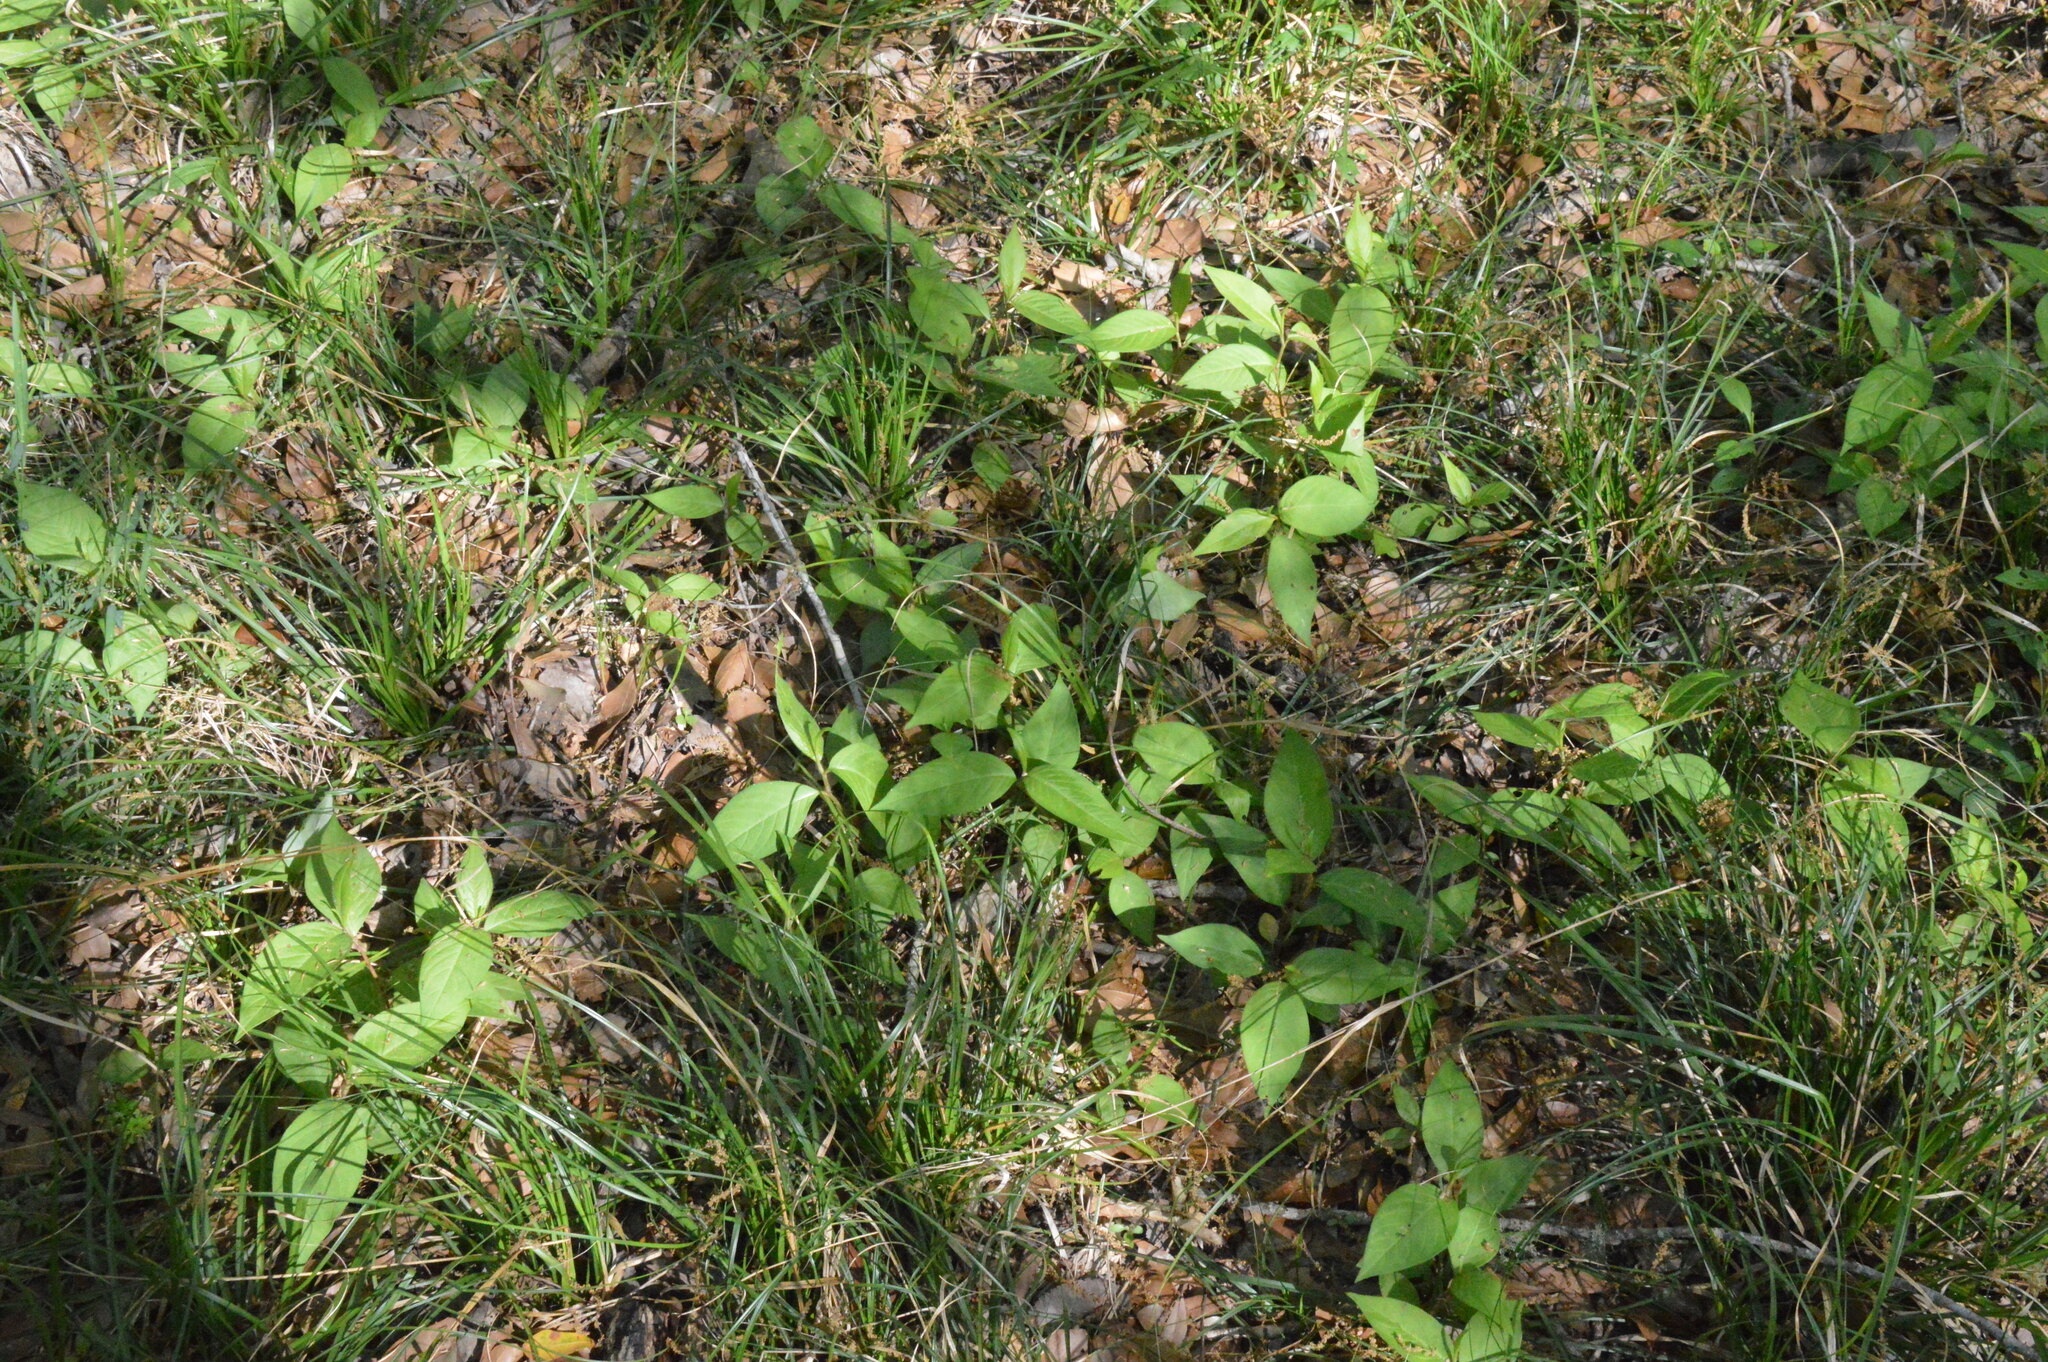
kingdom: Plantae
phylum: Tracheophyta
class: Magnoliopsida
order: Caryophyllales
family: Polygonaceae
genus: Persicaria
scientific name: Persicaria virginiana
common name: Jumpseed
